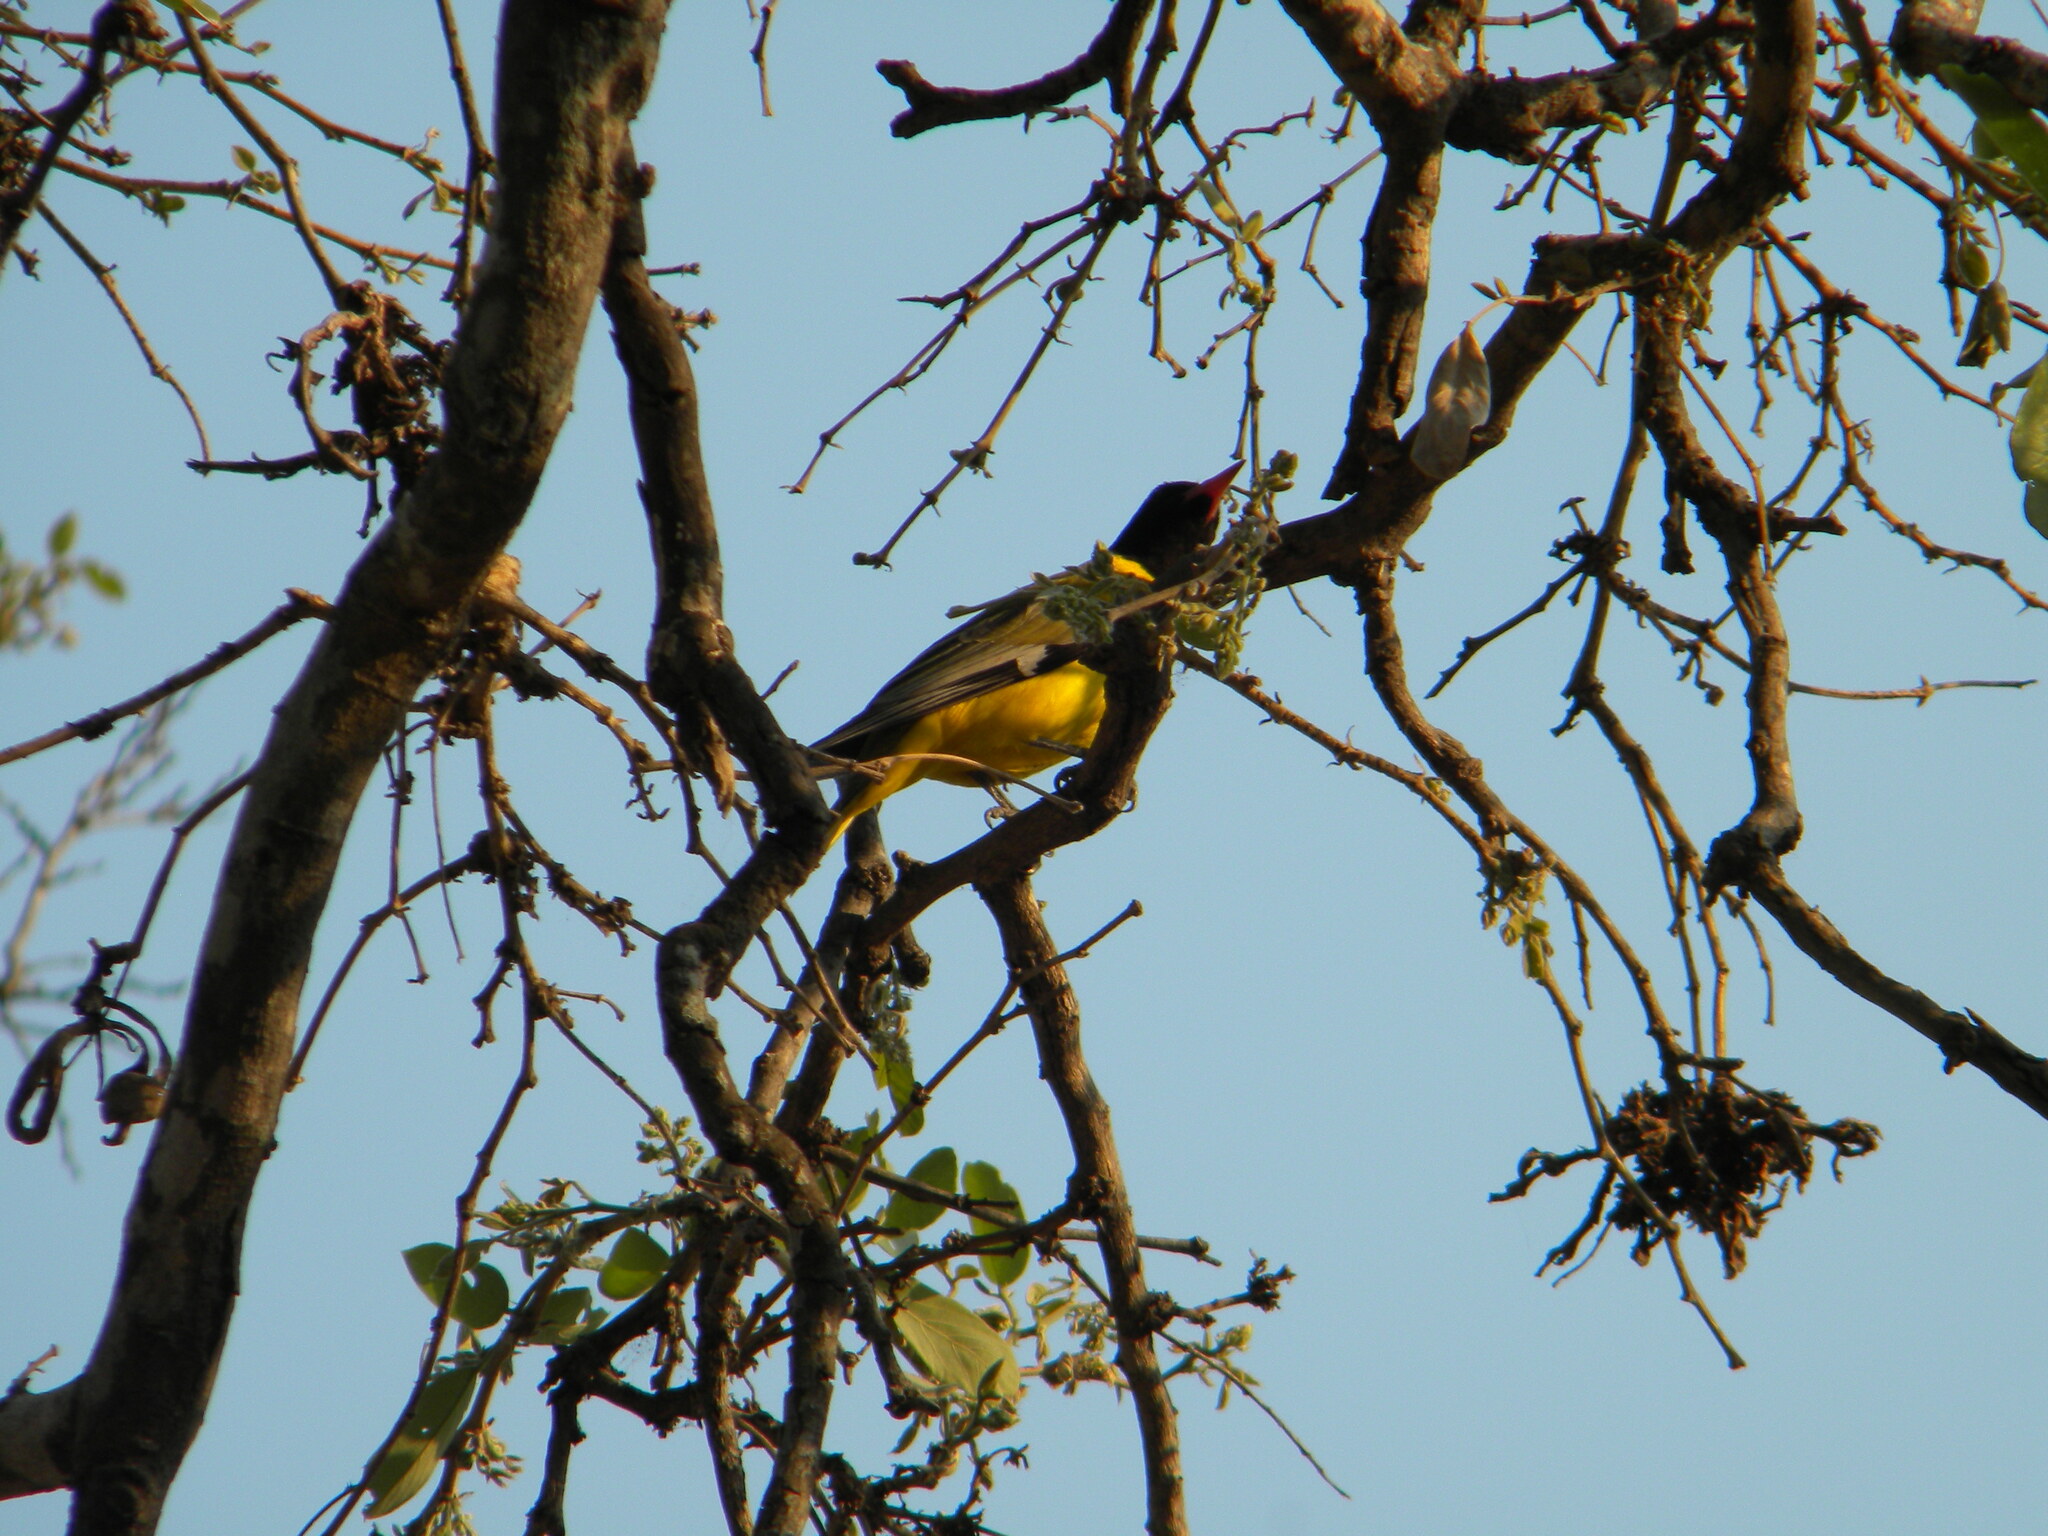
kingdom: Animalia
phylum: Chordata
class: Aves
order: Passeriformes
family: Oriolidae
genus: Oriolus
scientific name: Oriolus larvatus
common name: Black-headed oriole
